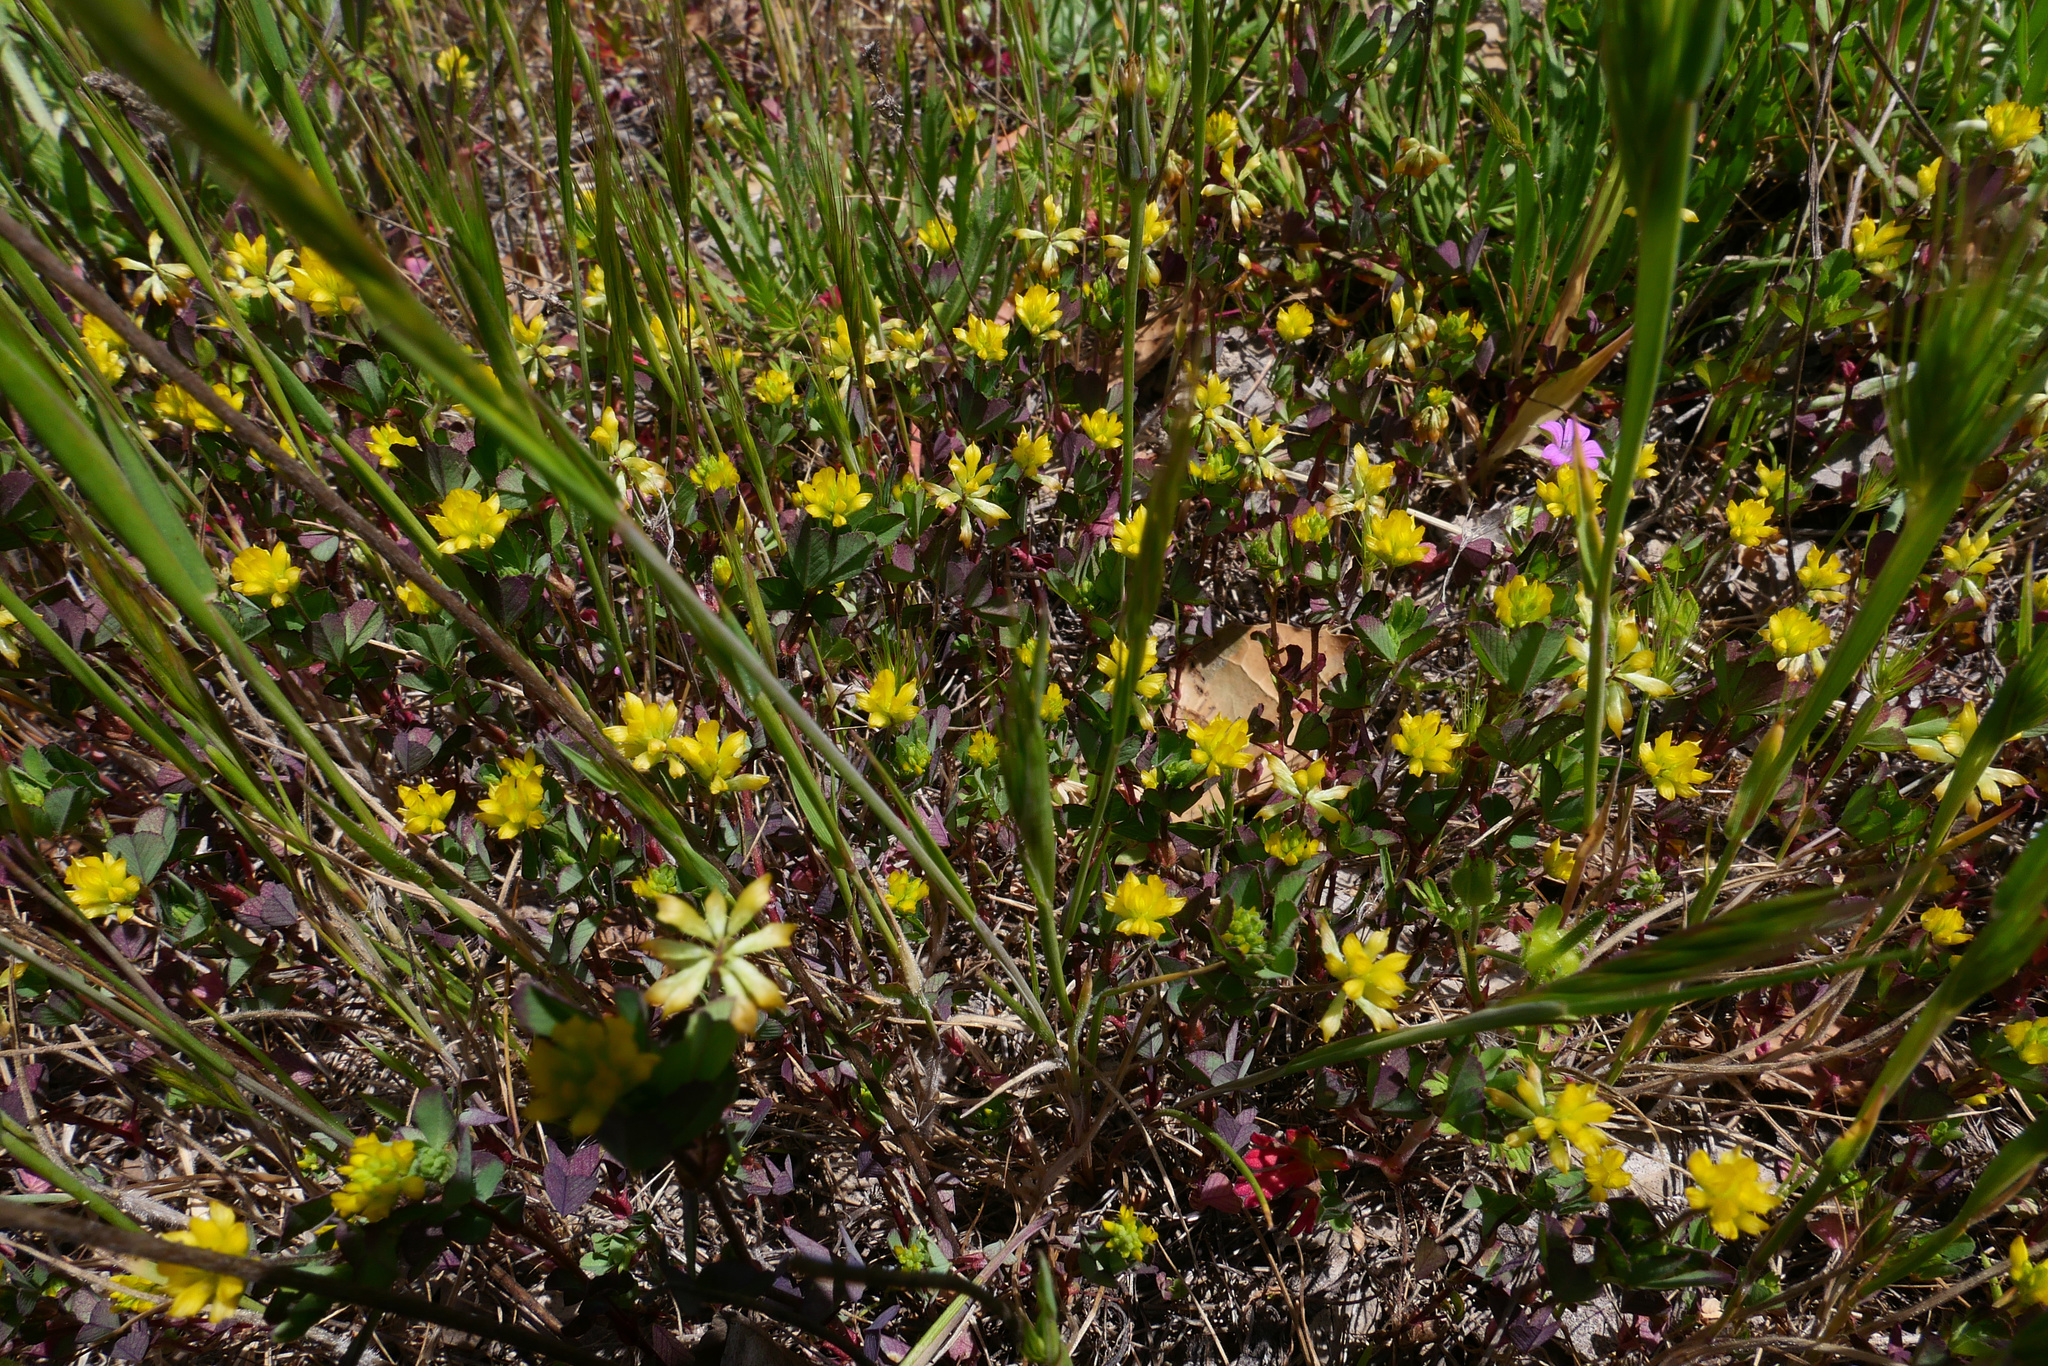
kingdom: Plantae
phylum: Tracheophyta
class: Magnoliopsida
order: Fabales
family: Fabaceae
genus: Trifolium
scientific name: Trifolium dubium
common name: Suckling clover
